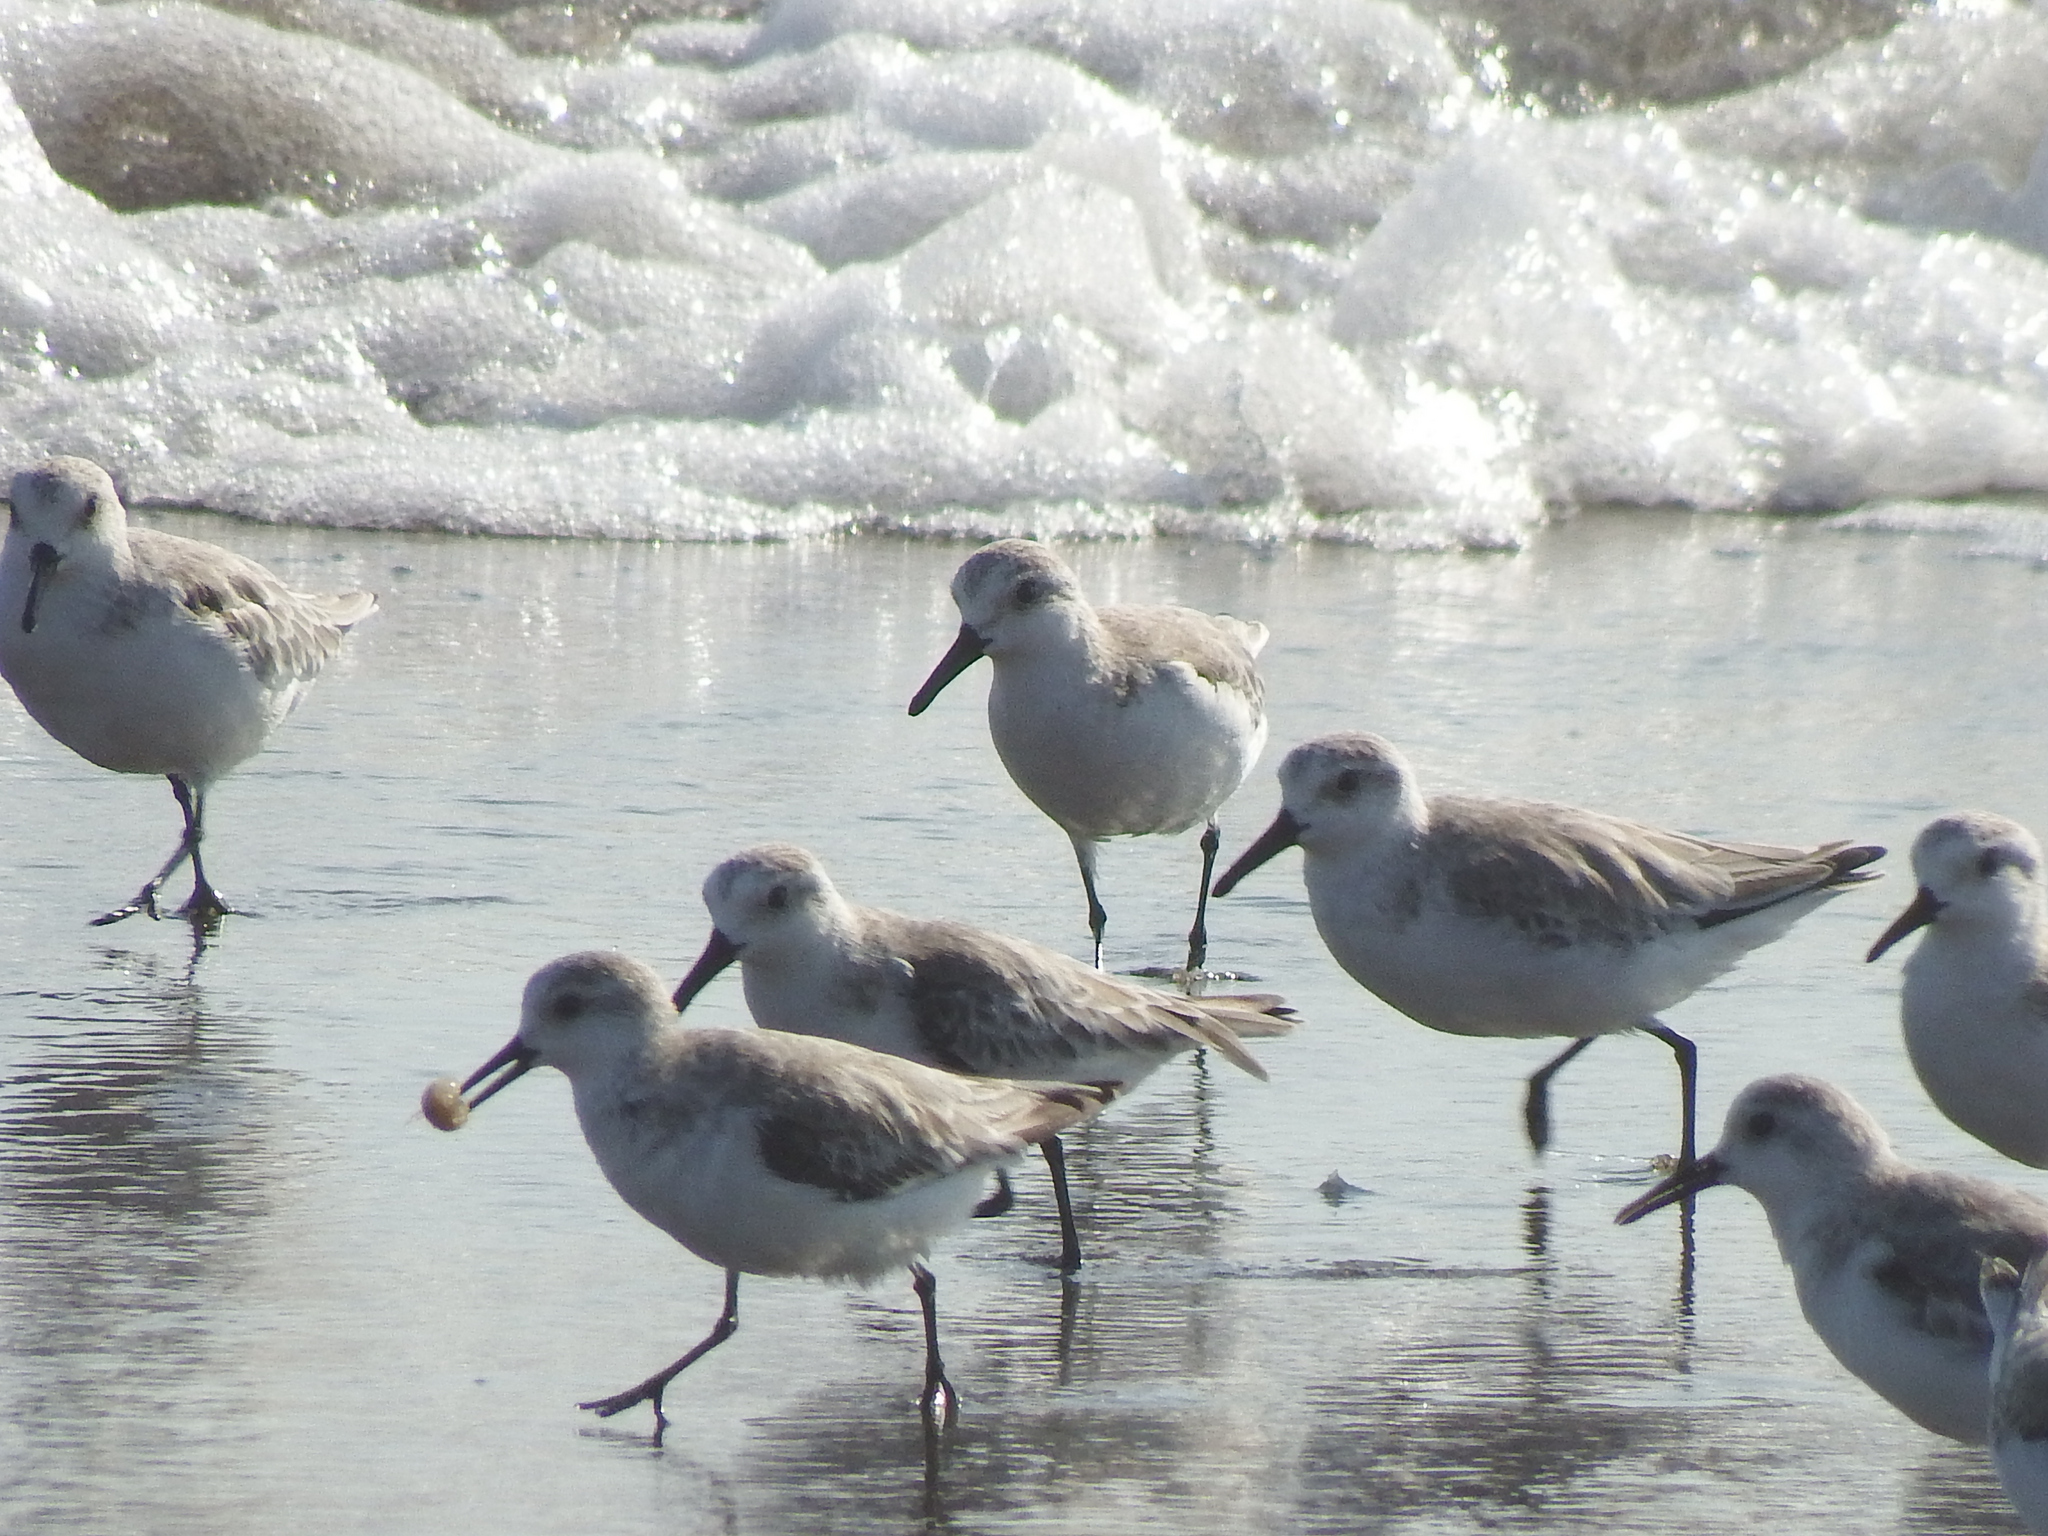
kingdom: Animalia
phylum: Chordata
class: Aves
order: Charadriiformes
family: Scolopacidae
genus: Calidris
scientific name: Calidris alba
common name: Sanderling
